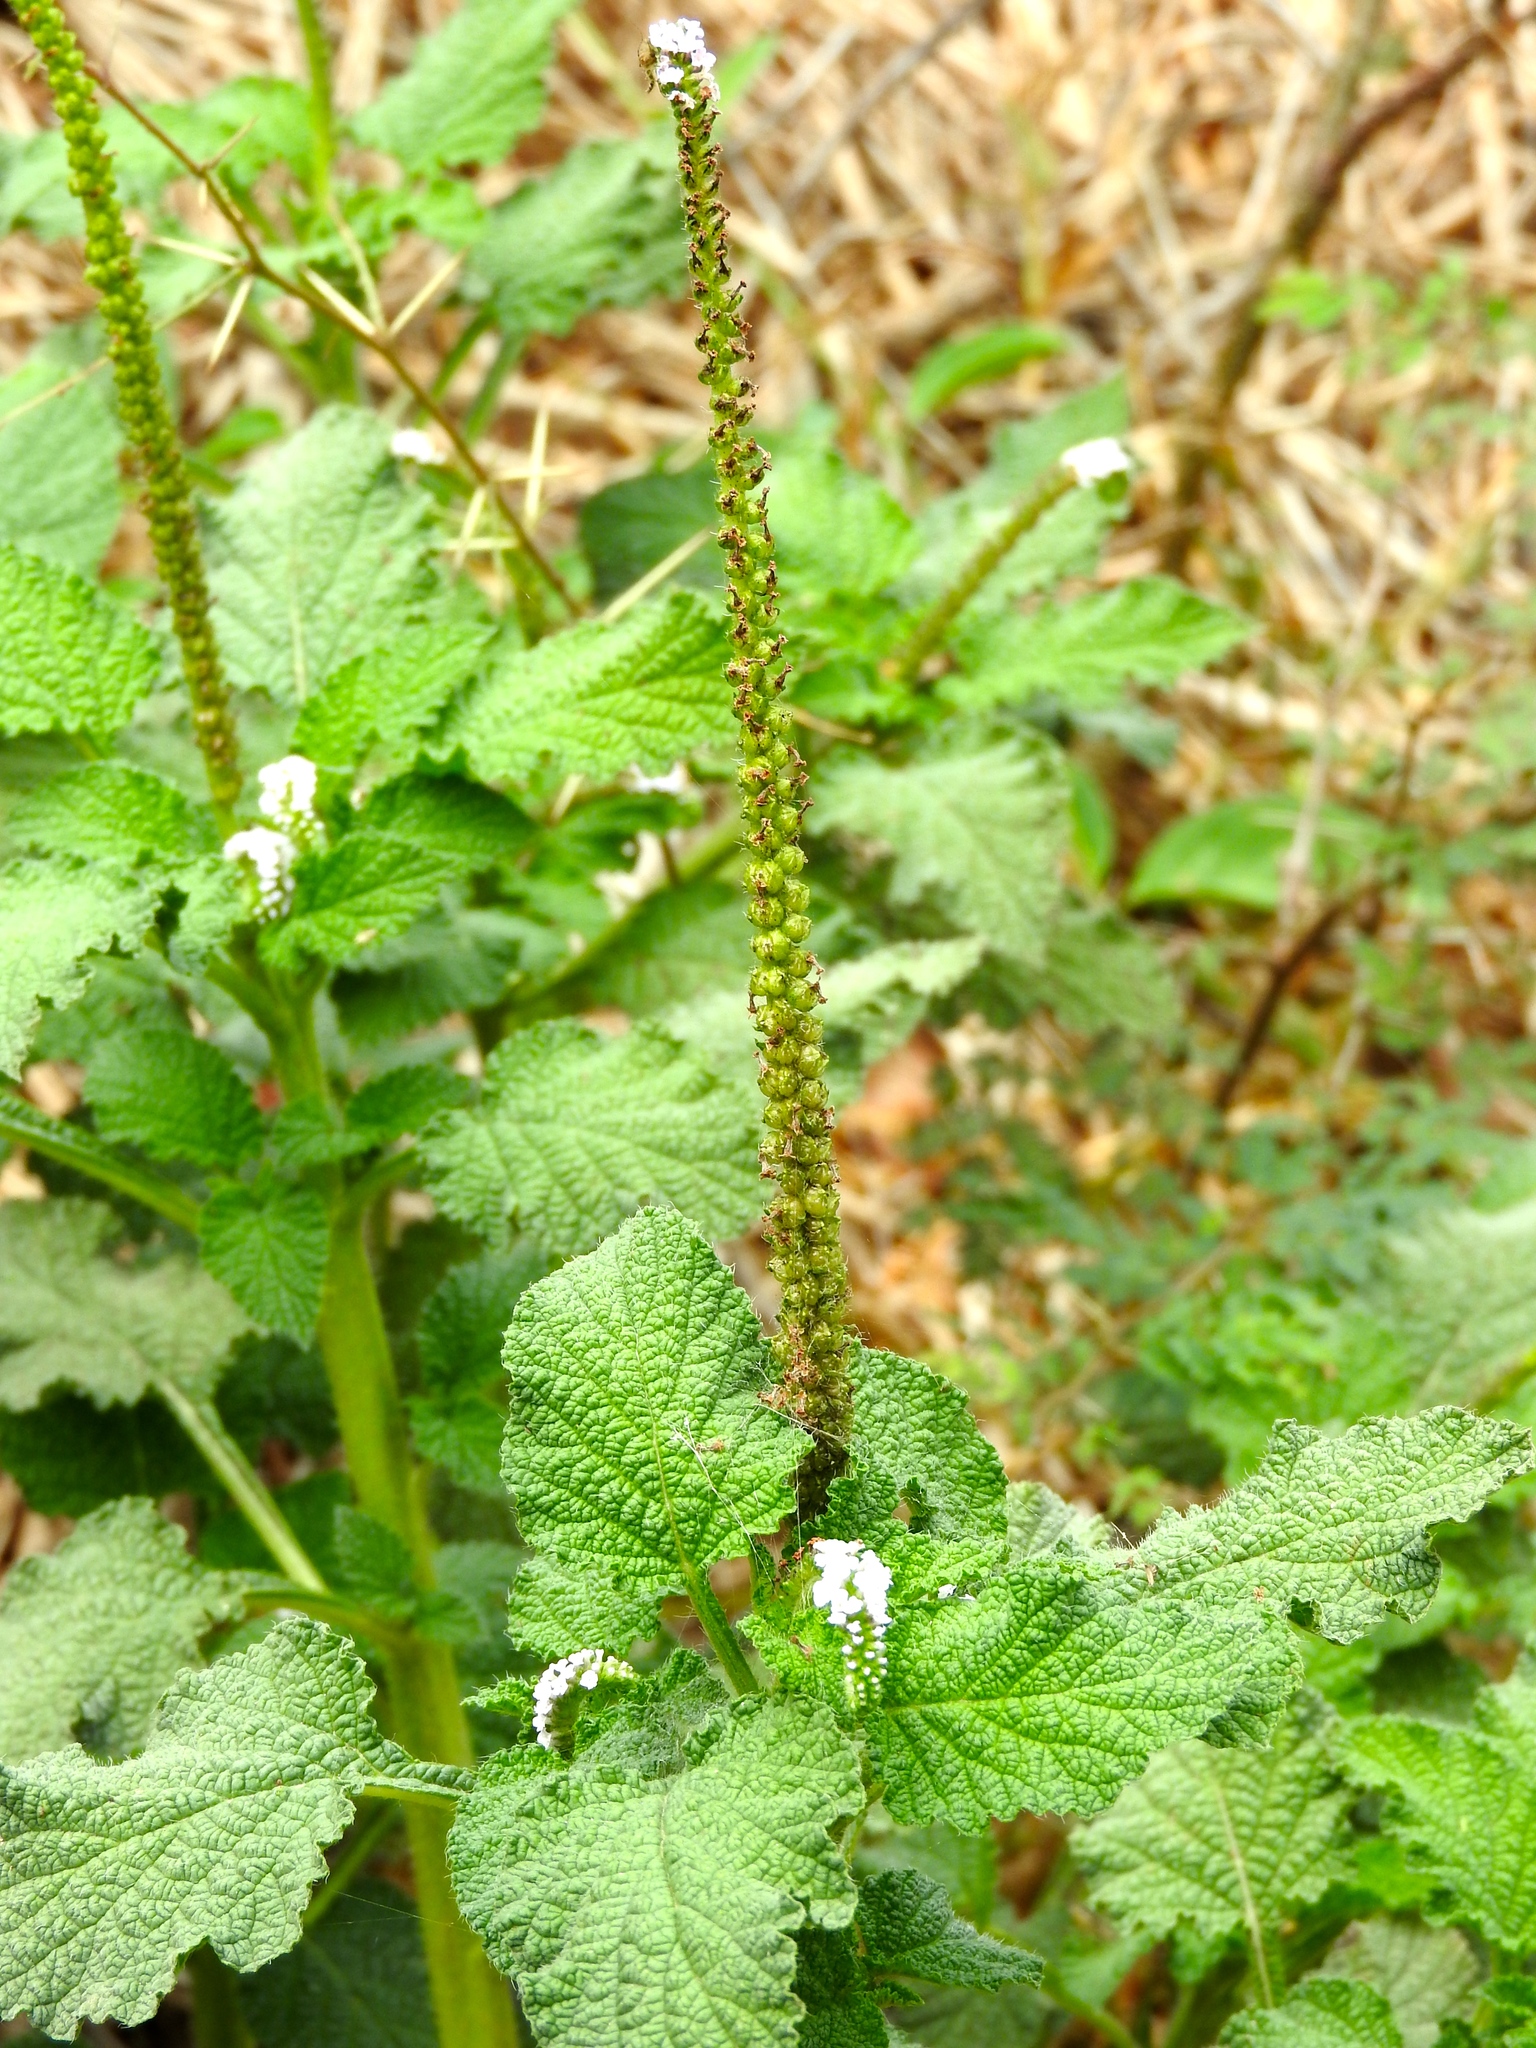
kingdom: Plantae
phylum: Tracheophyta
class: Magnoliopsida
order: Boraginales
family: Heliotropiaceae
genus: Heliotropium
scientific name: Heliotropium indicum
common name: Indian heliotrope
